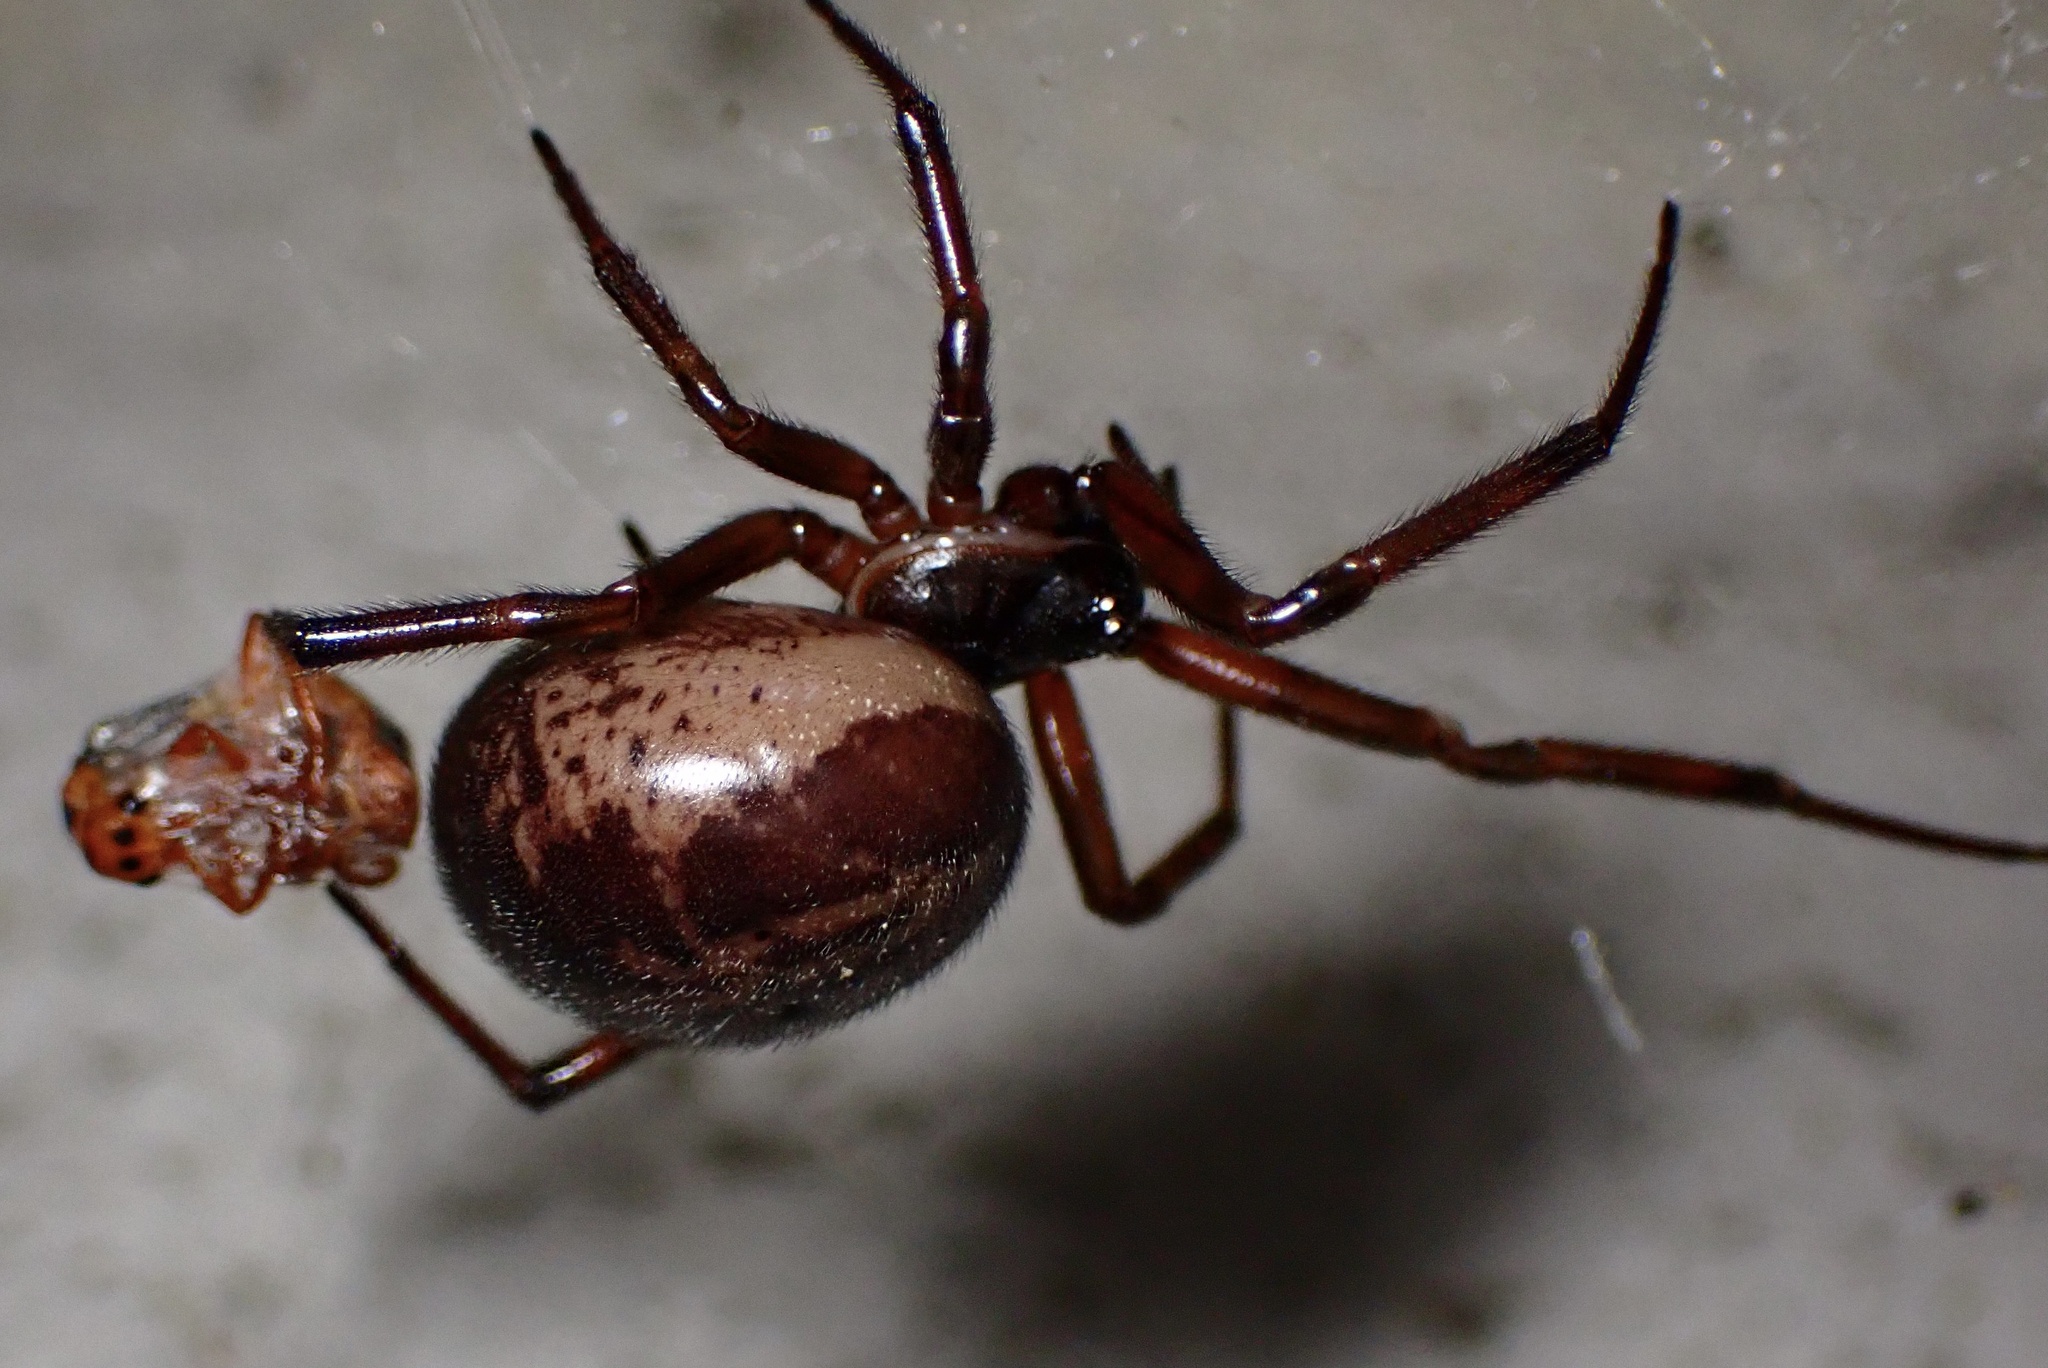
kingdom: Animalia
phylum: Arthropoda
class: Arachnida
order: Araneae
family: Theridiidae
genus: Steatoda
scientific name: Steatoda nobilis
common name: Cobweb weaver
